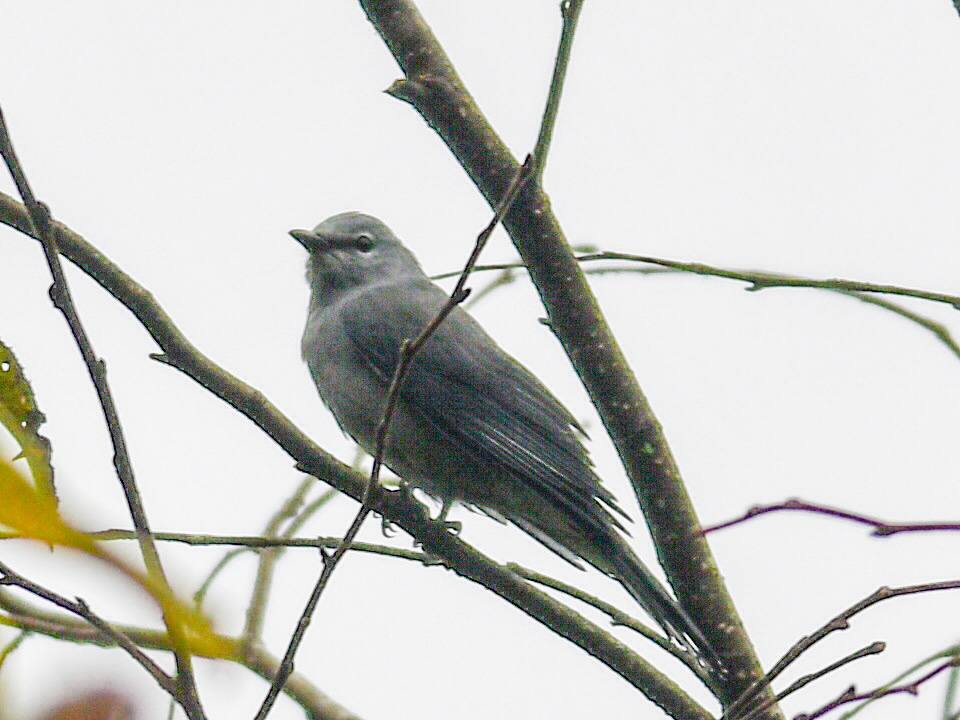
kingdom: Animalia
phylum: Chordata
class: Aves
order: Passeriformes
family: Campephagidae
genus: Coracina
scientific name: Coracina melaschistos
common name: Black-winged cuckooshrike
